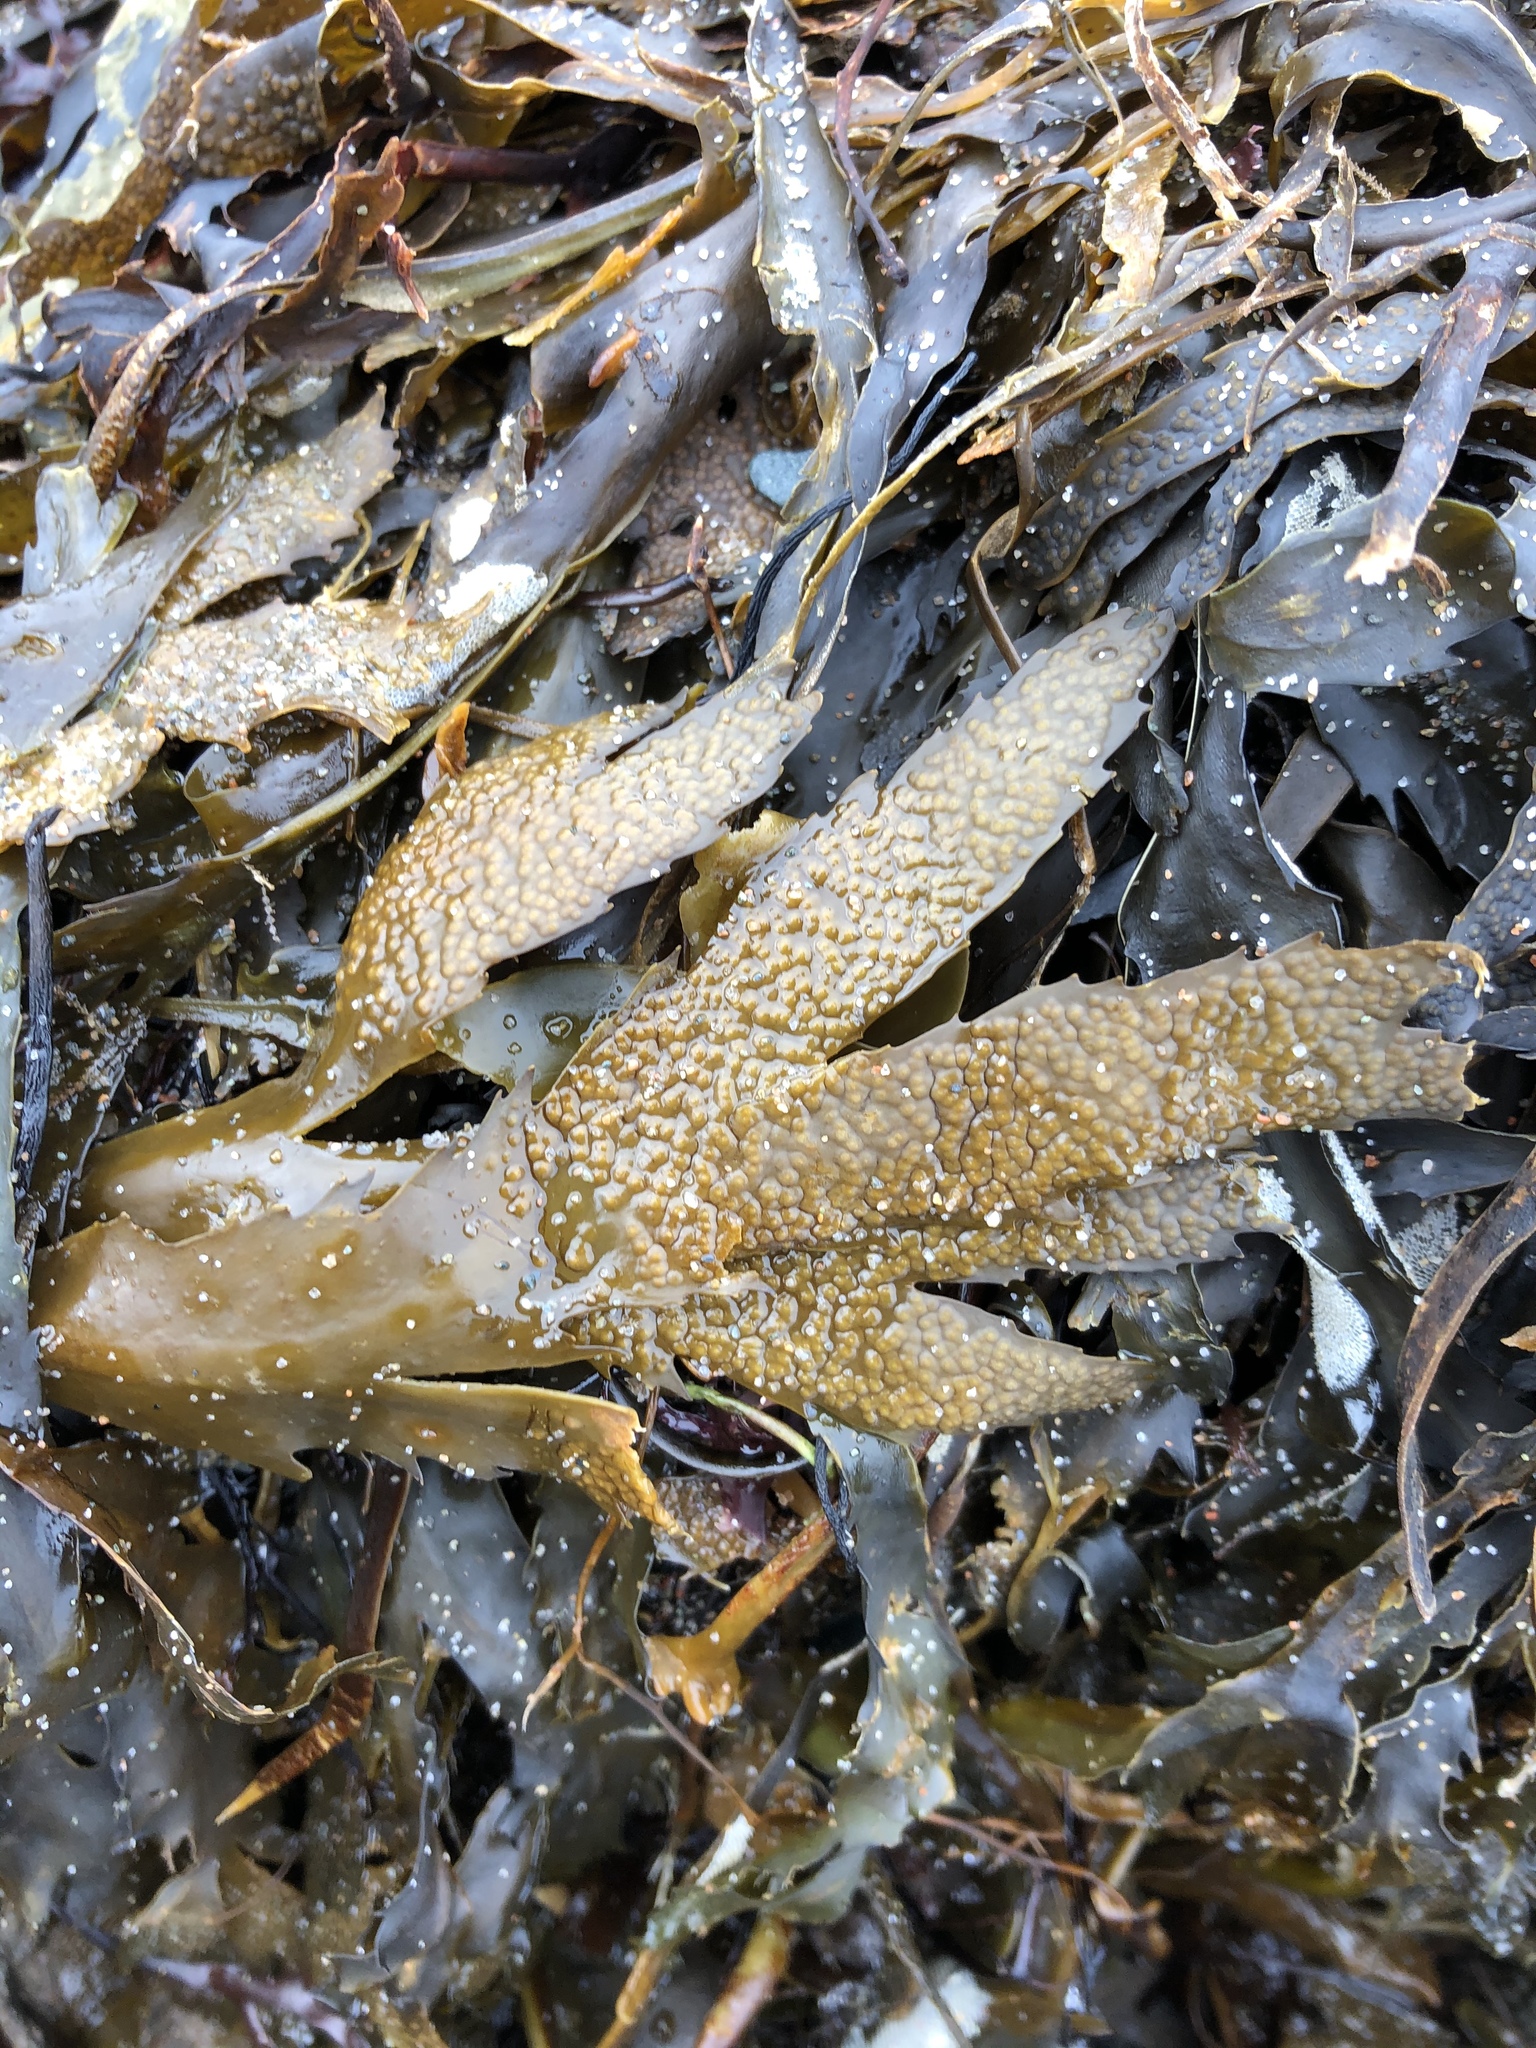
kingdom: Chromista
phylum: Ochrophyta
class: Phaeophyceae
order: Fucales
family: Fucaceae
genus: Fucus
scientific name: Fucus serratus
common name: Toothed wrack
